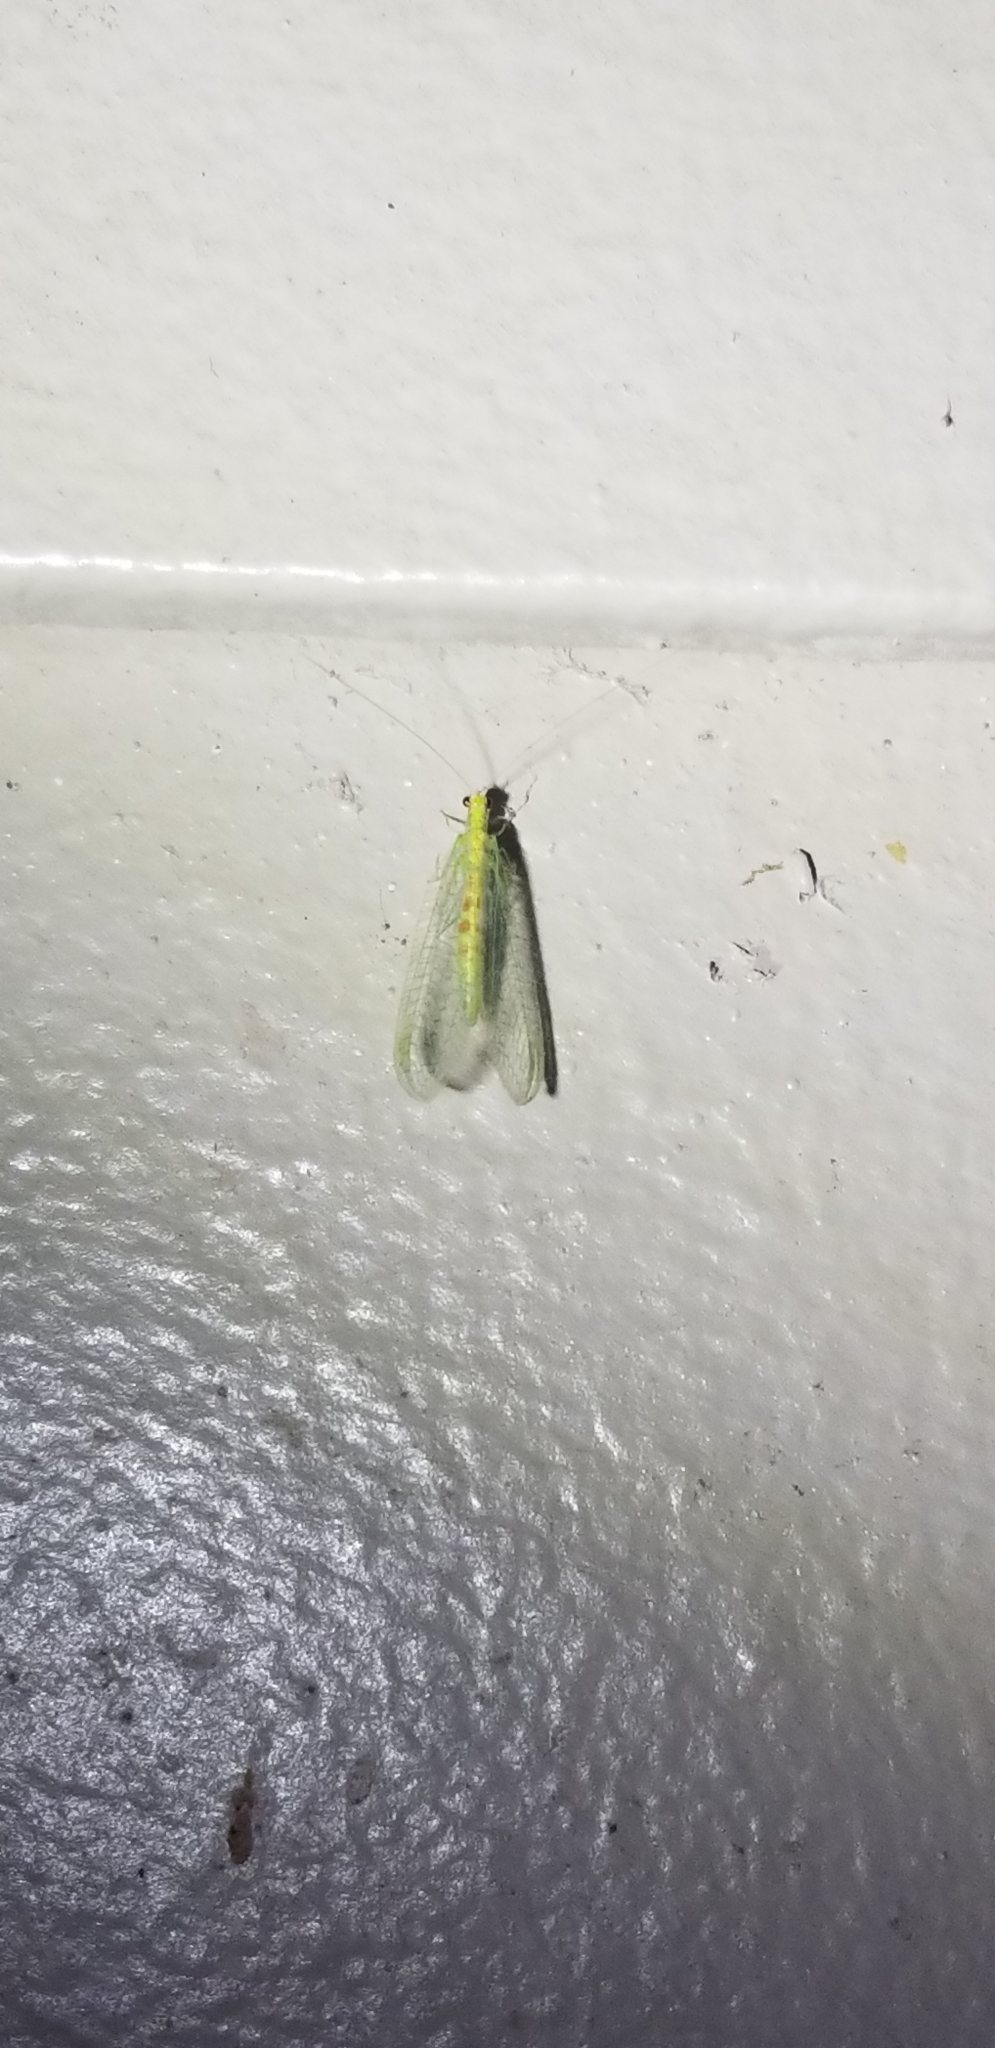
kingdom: Animalia
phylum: Arthropoda
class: Insecta
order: Neuroptera
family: Chrysopidae
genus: Chrysopa
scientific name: Chrysopa quadripunctata
